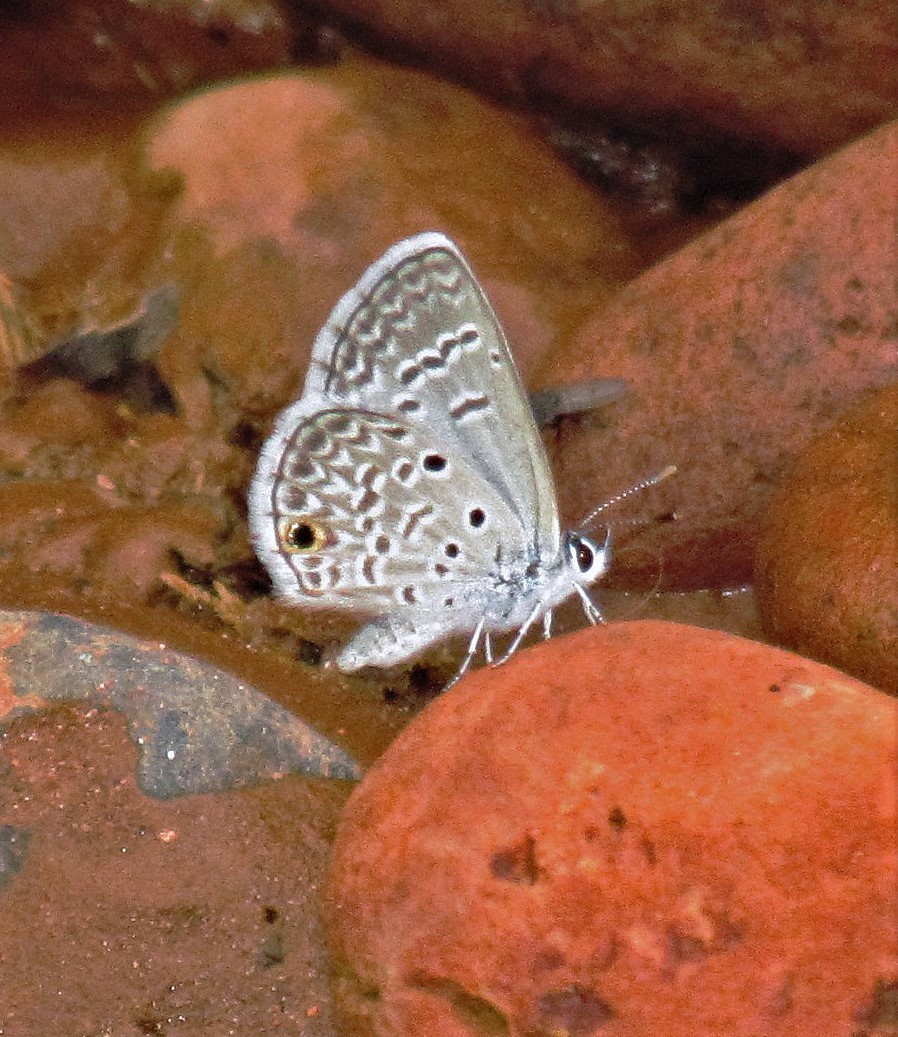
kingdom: Animalia
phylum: Arthropoda
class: Insecta
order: Lepidoptera
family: Lycaenidae
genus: Hemiargus
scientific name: Hemiargus hanno
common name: Common blue
